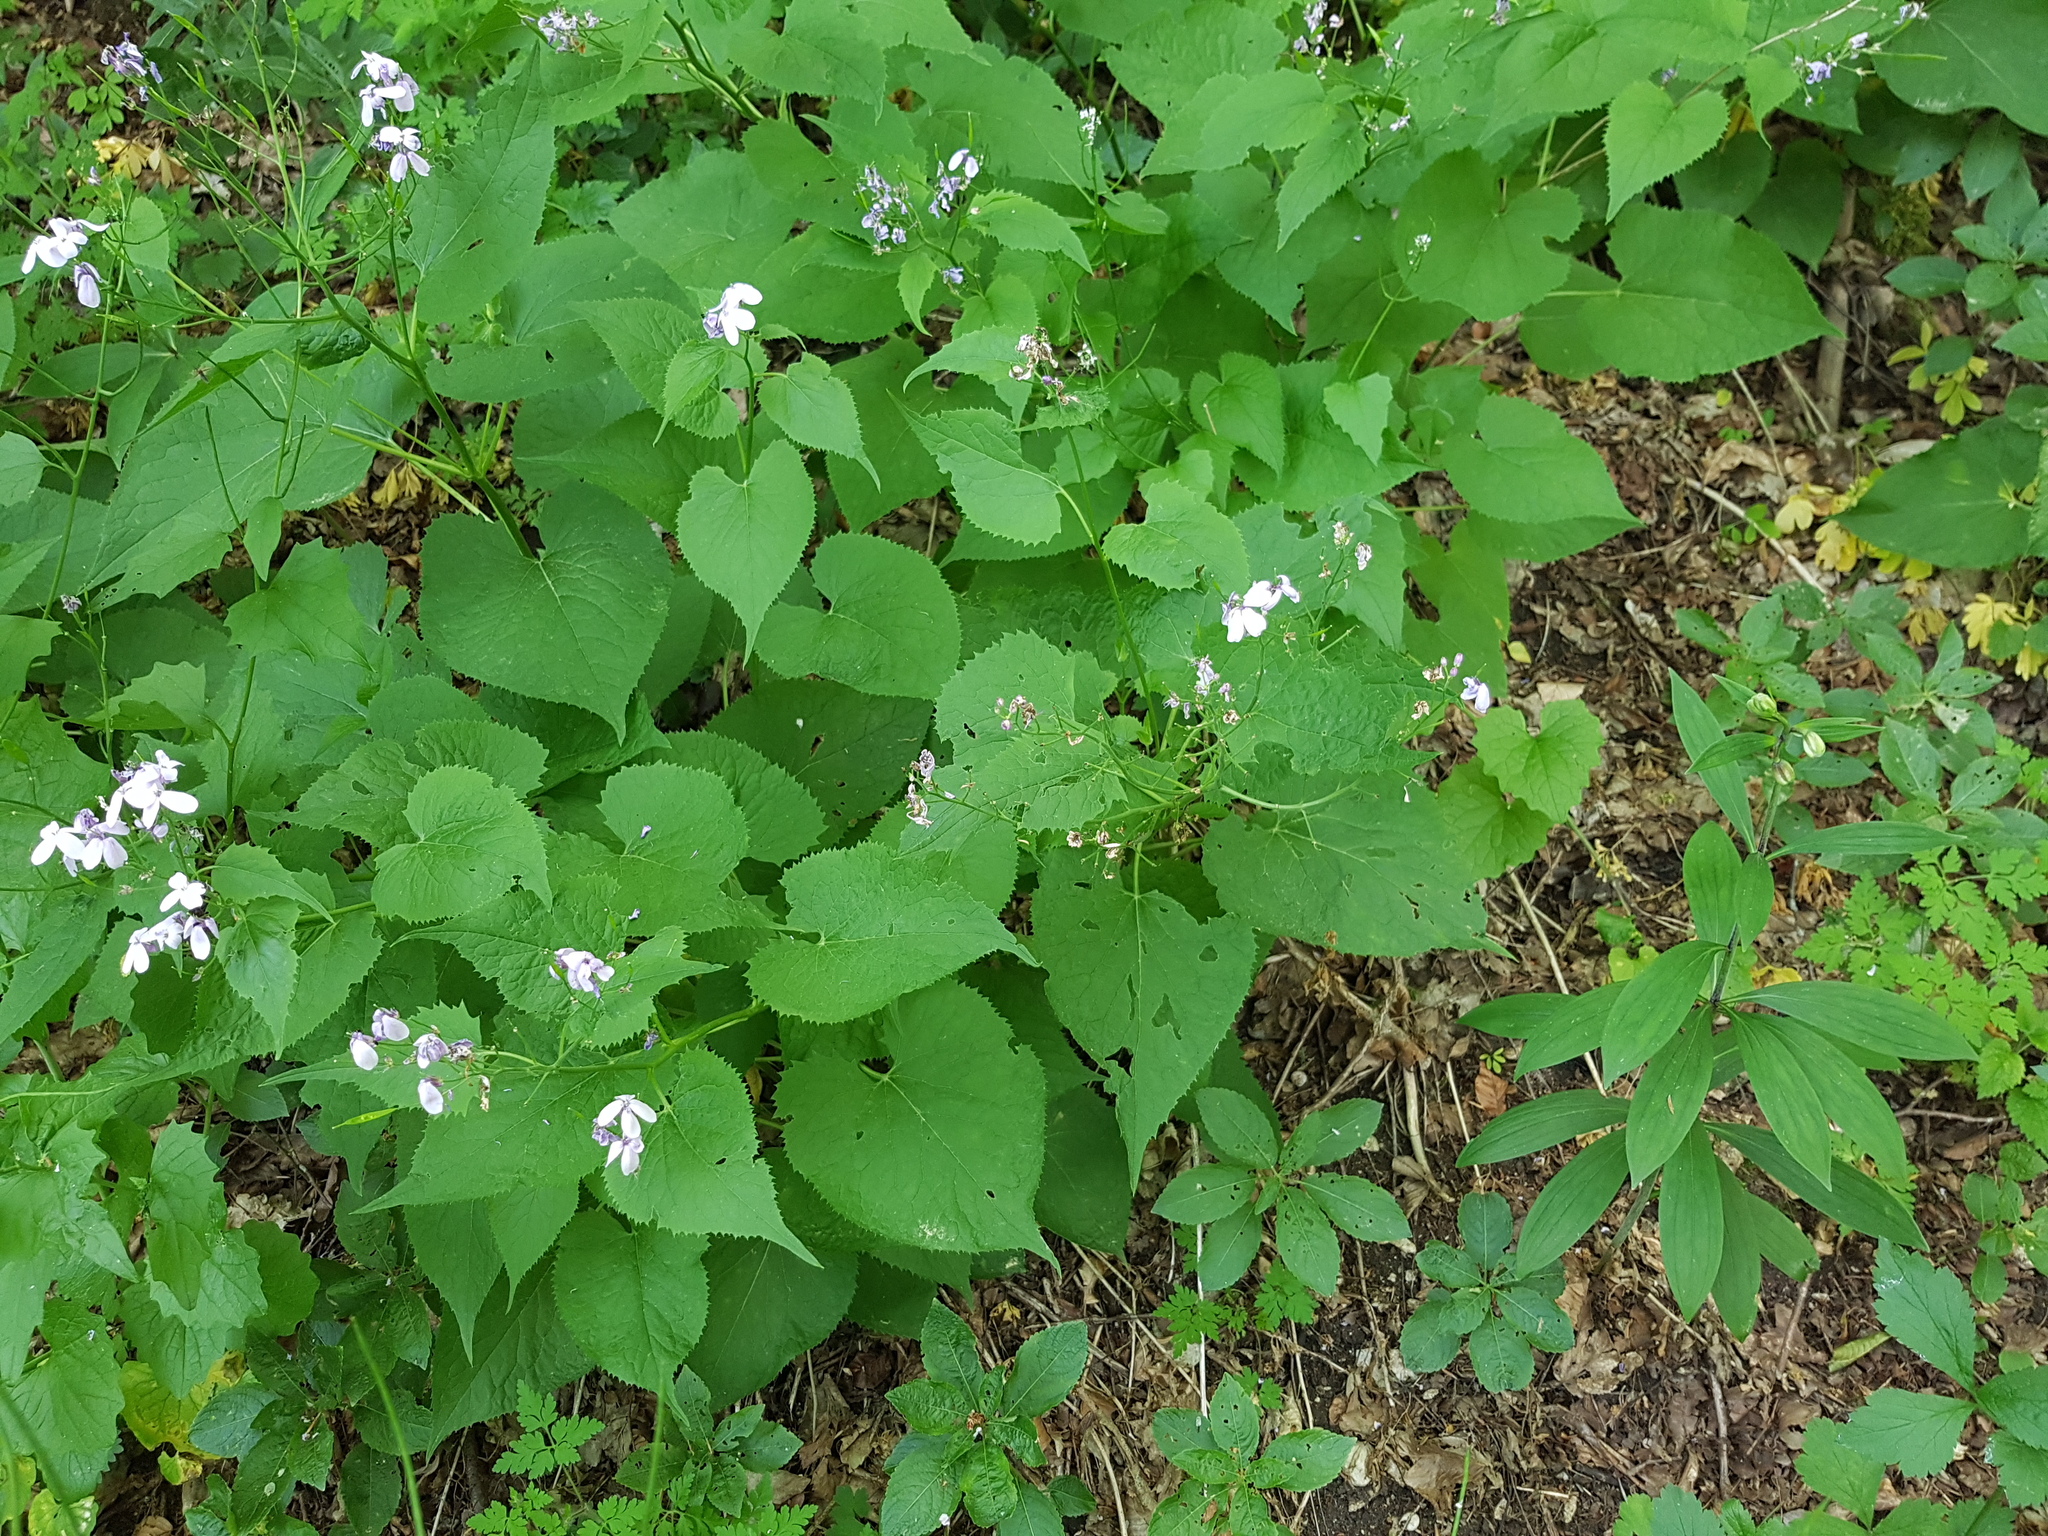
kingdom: Plantae
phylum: Tracheophyta
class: Magnoliopsida
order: Brassicales
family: Brassicaceae
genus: Lunaria
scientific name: Lunaria rediviva
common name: Perennial honesty
